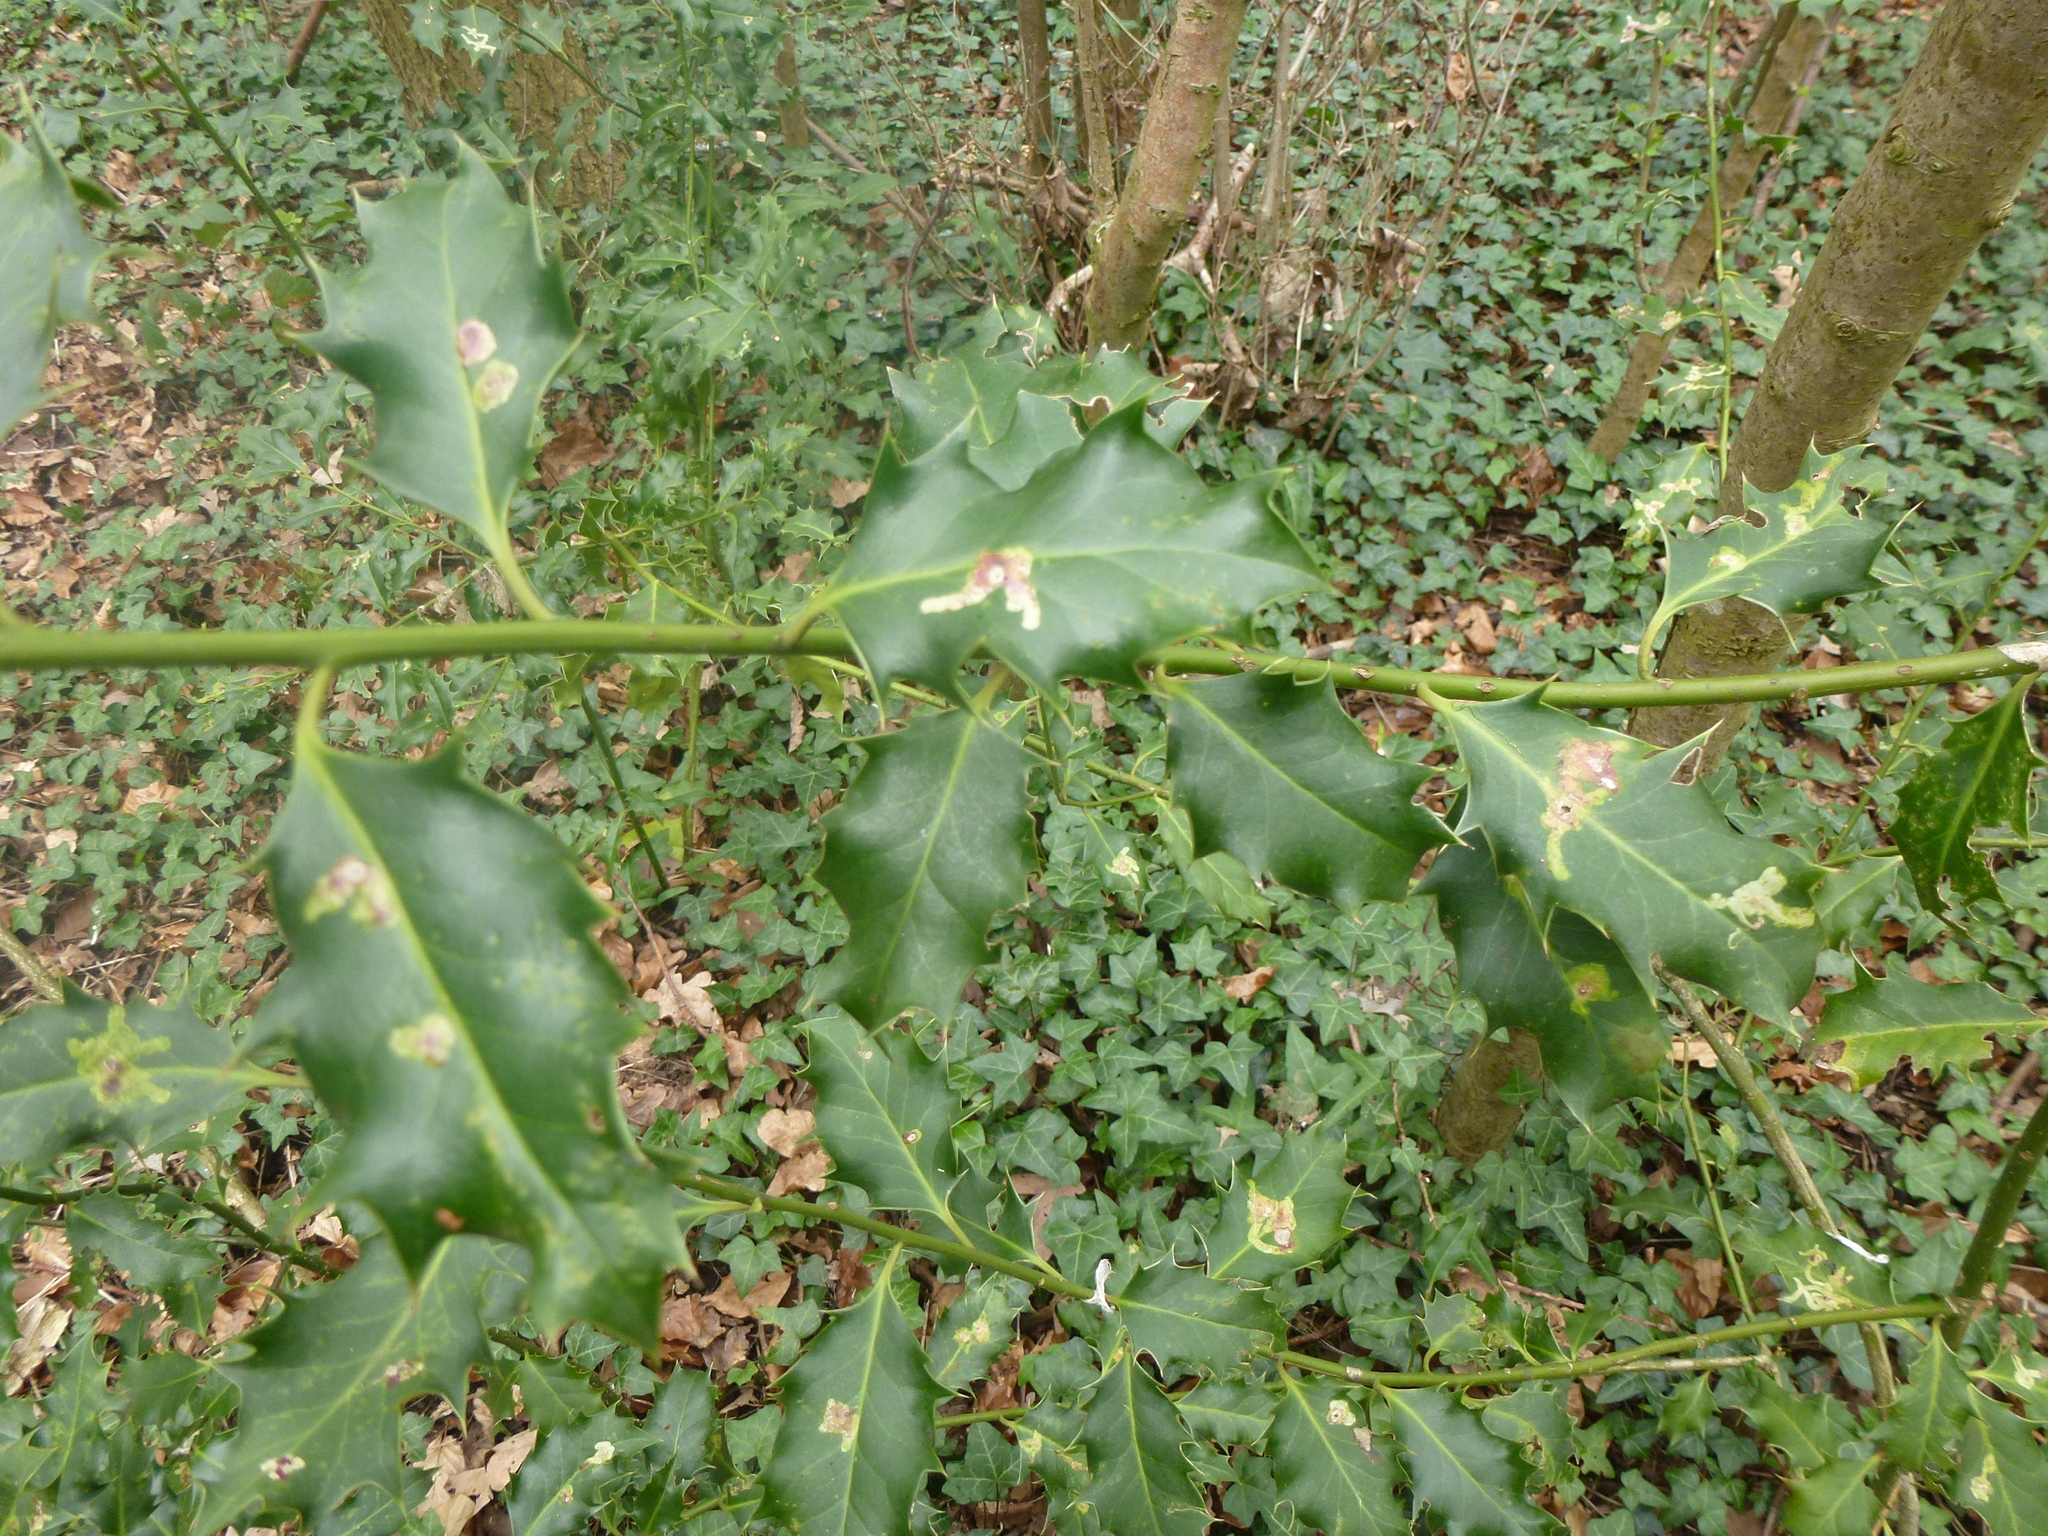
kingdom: Animalia
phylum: Arthropoda
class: Insecta
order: Diptera
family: Agromyzidae
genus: Phytomyza
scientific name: Phytomyza ilicis
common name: Holly leafminer
